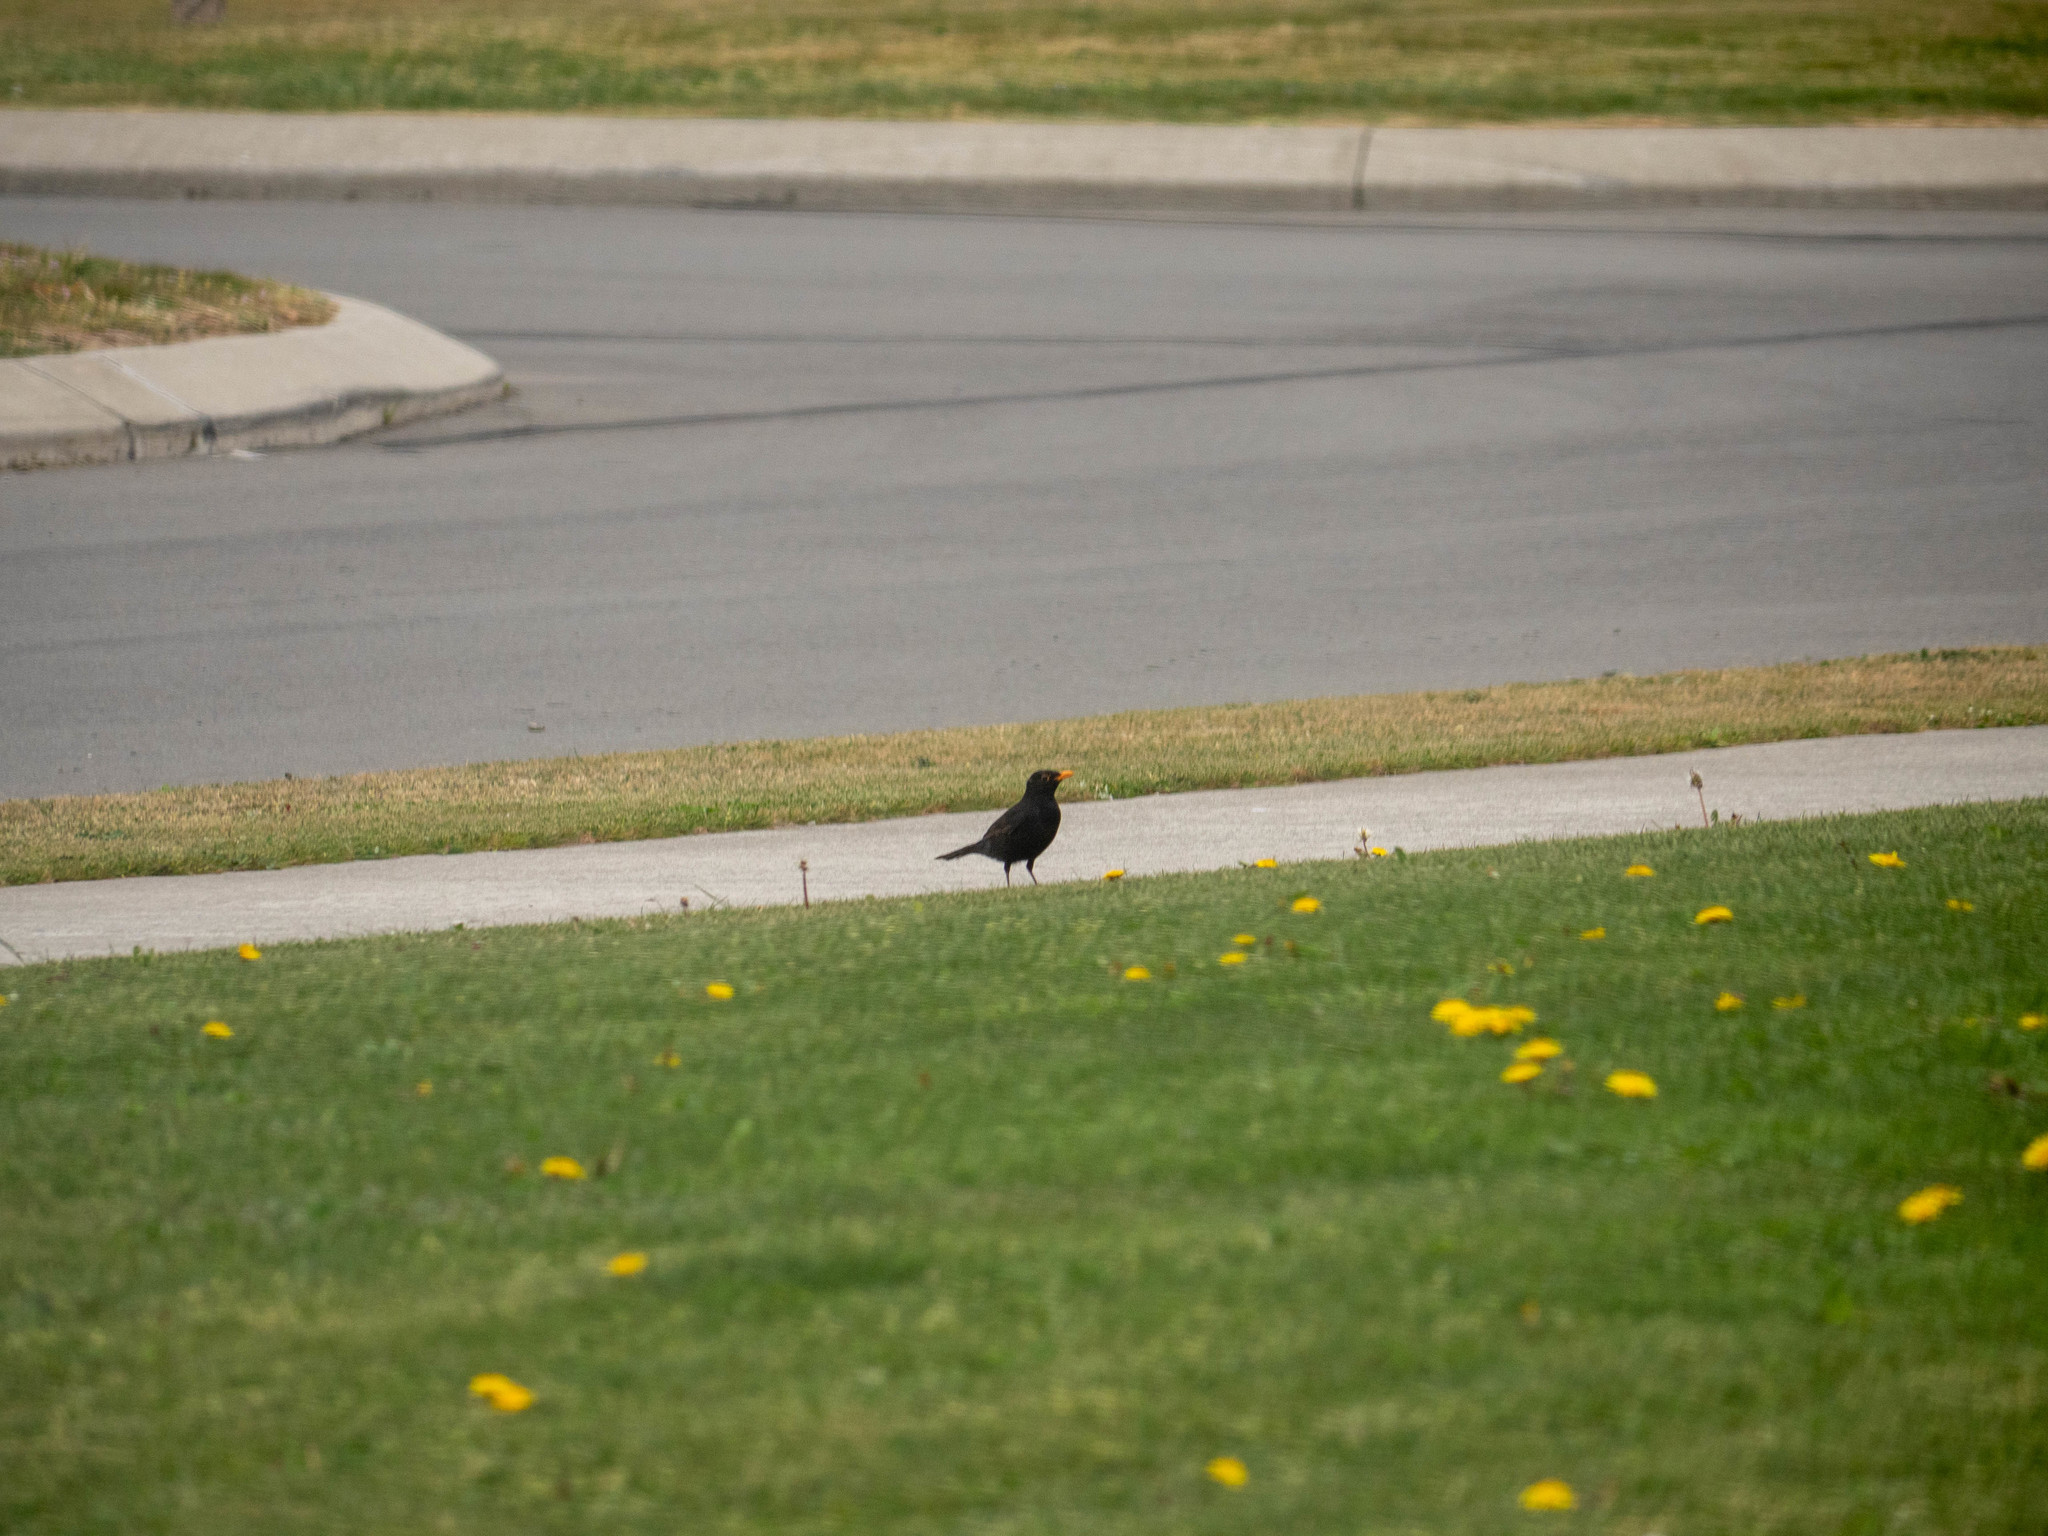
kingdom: Animalia
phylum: Chordata
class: Aves
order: Passeriformes
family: Turdidae
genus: Turdus
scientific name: Turdus merula
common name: Common blackbird
